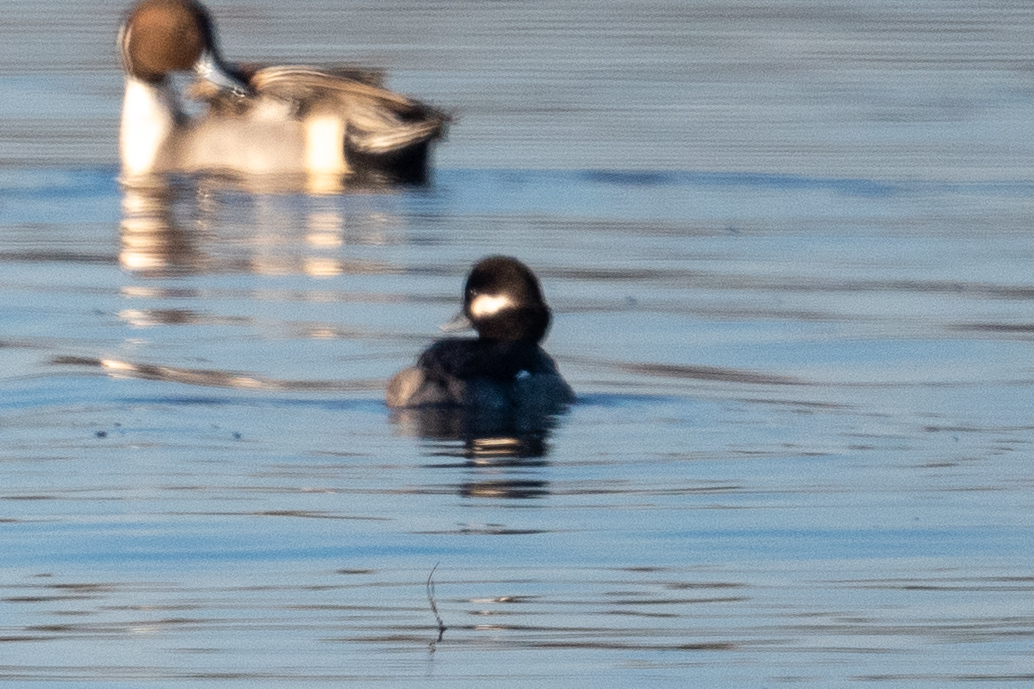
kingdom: Animalia
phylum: Chordata
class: Aves
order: Anseriformes
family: Anatidae
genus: Bucephala
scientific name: Bucephala albeola
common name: Bufflehead
